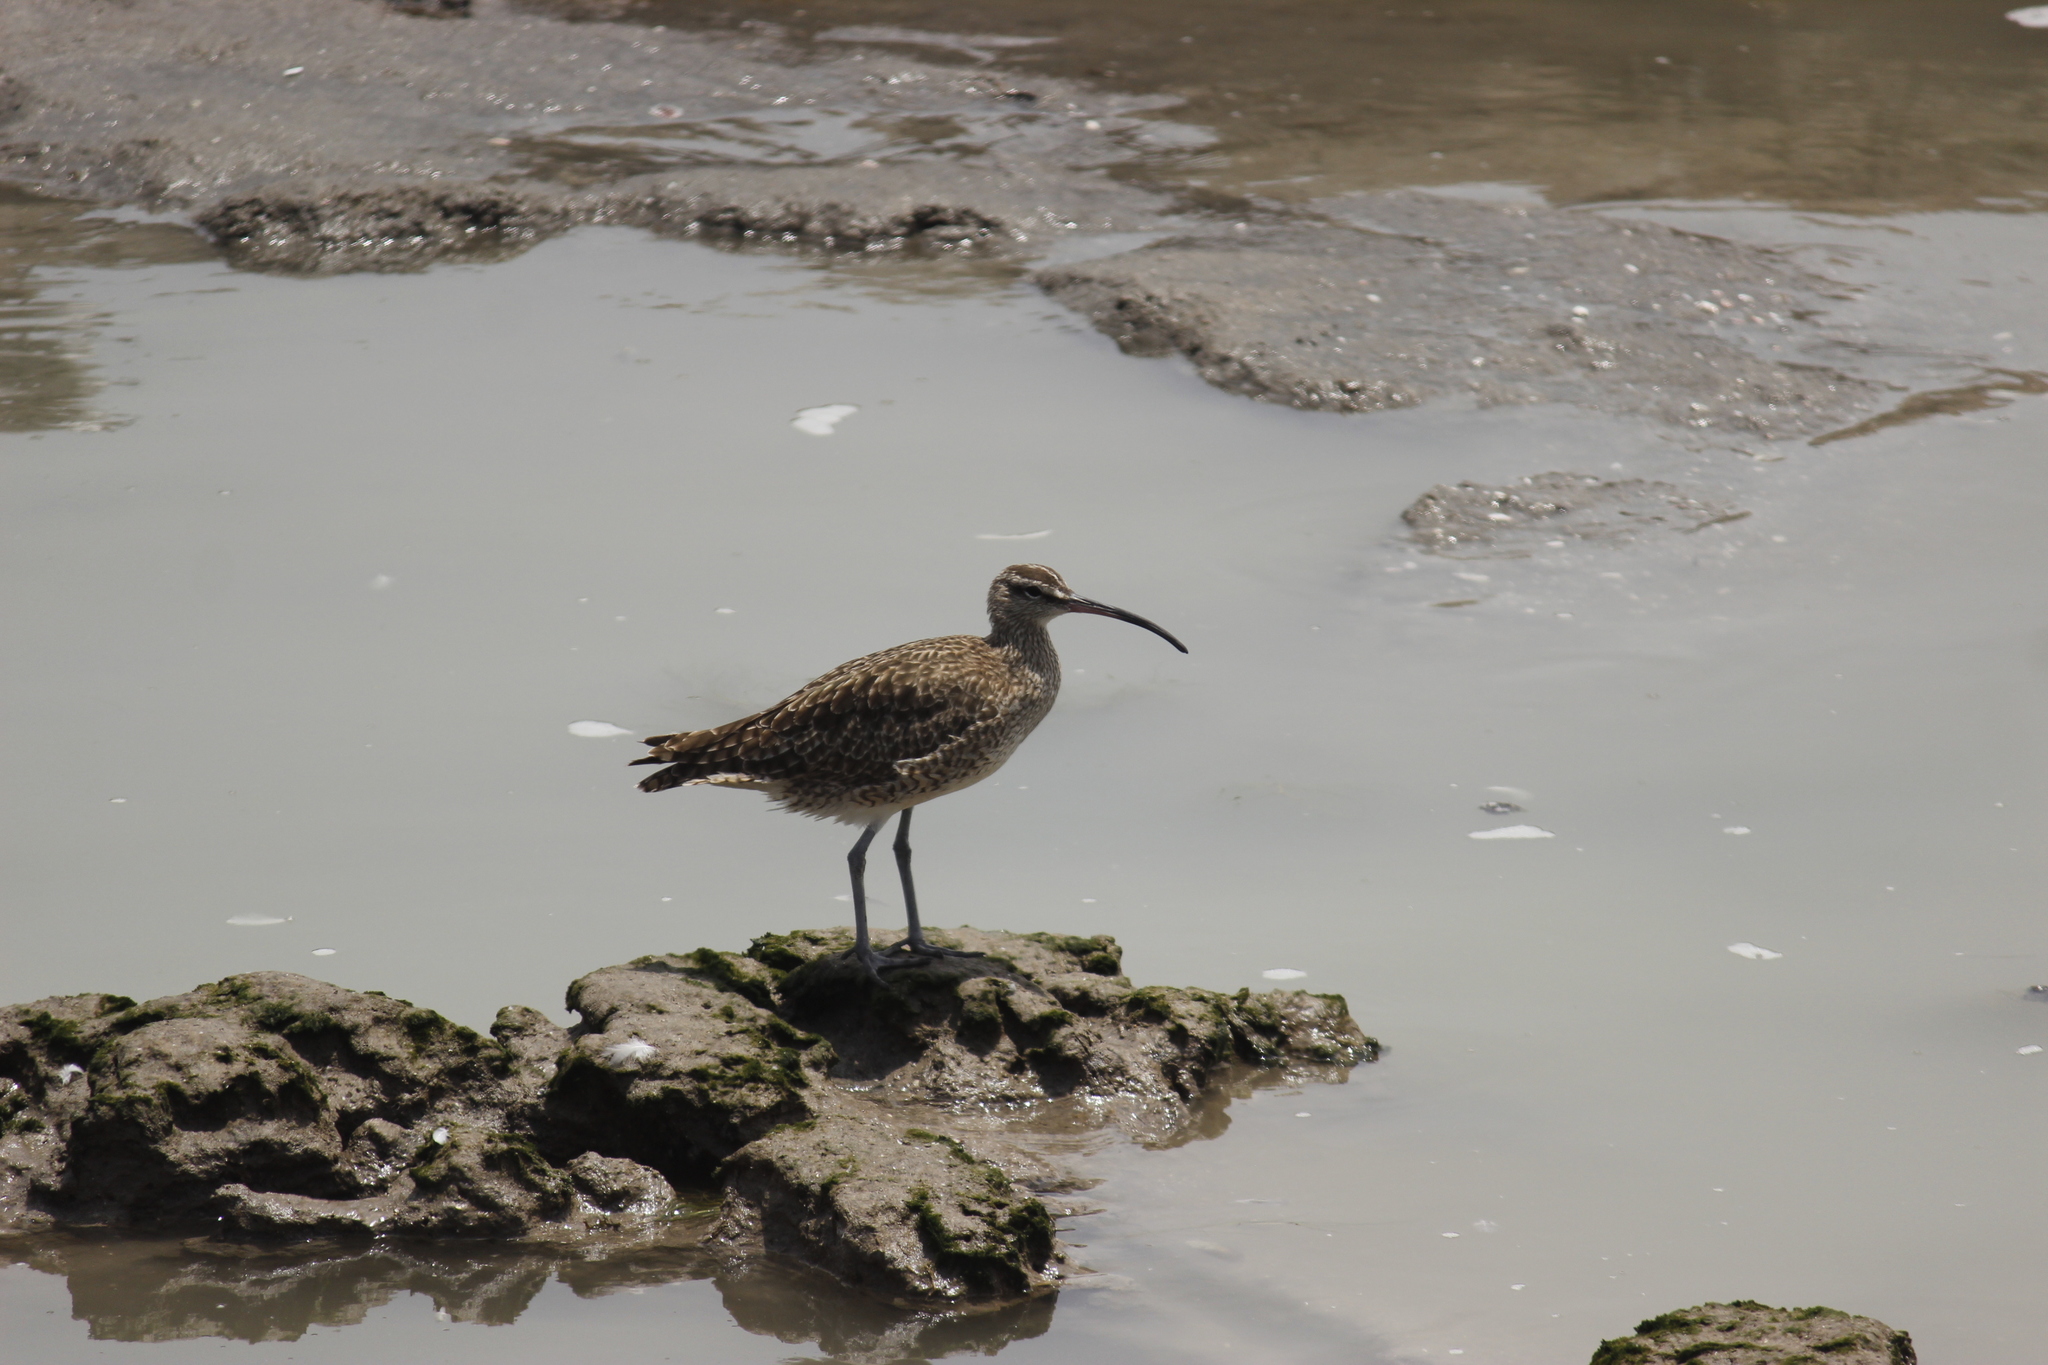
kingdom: Animalia
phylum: Chordata
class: Aves
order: Charadriiformes
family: Scolopacidae
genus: Numenius
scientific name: Numenius phaeopus
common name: Whimbrel
